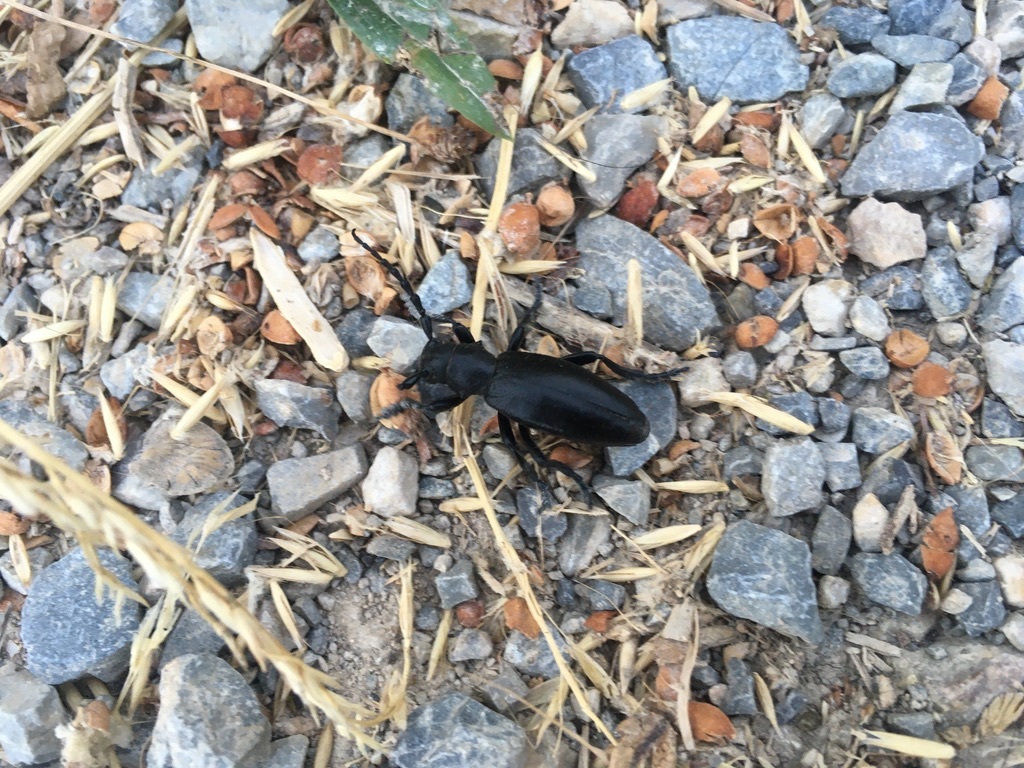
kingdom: Animalia
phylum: Arthropoda
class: Insecta
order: Coleoptera
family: Cerambycidae
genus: Dorcadion
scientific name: Dorcadion aethiops
